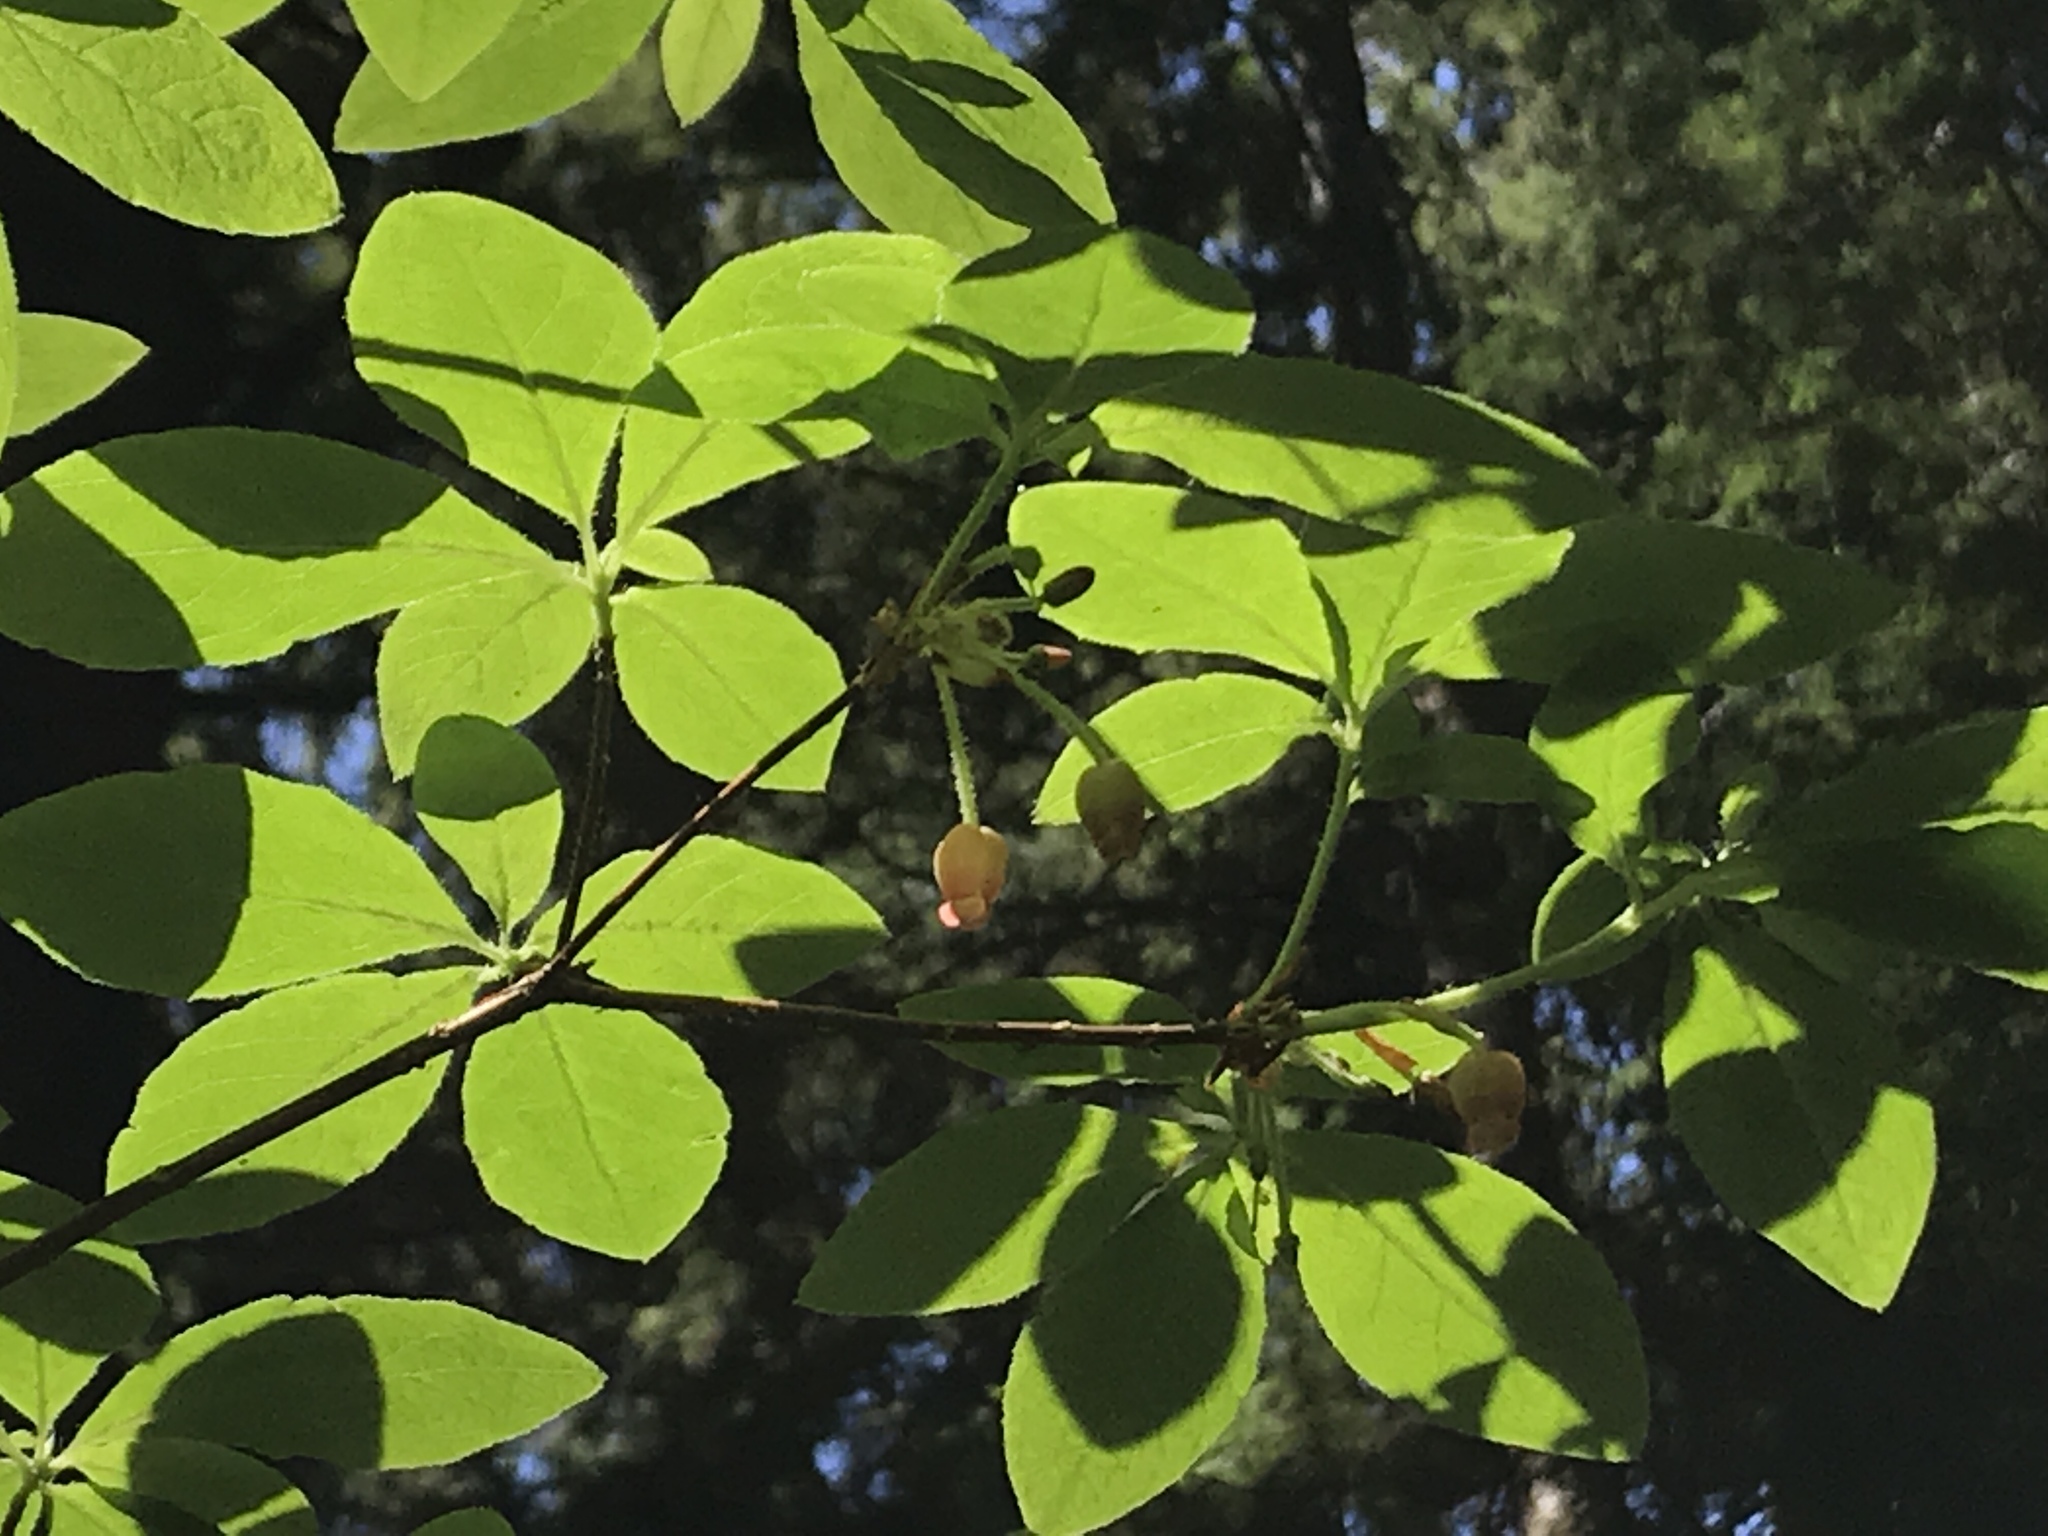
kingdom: Plantae
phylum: Tracheophyta
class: Magnoliopsida
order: Ericales
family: Ericaceae
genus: Rhododendron
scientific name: Rhododendron menziesii
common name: Pacific menziesia
